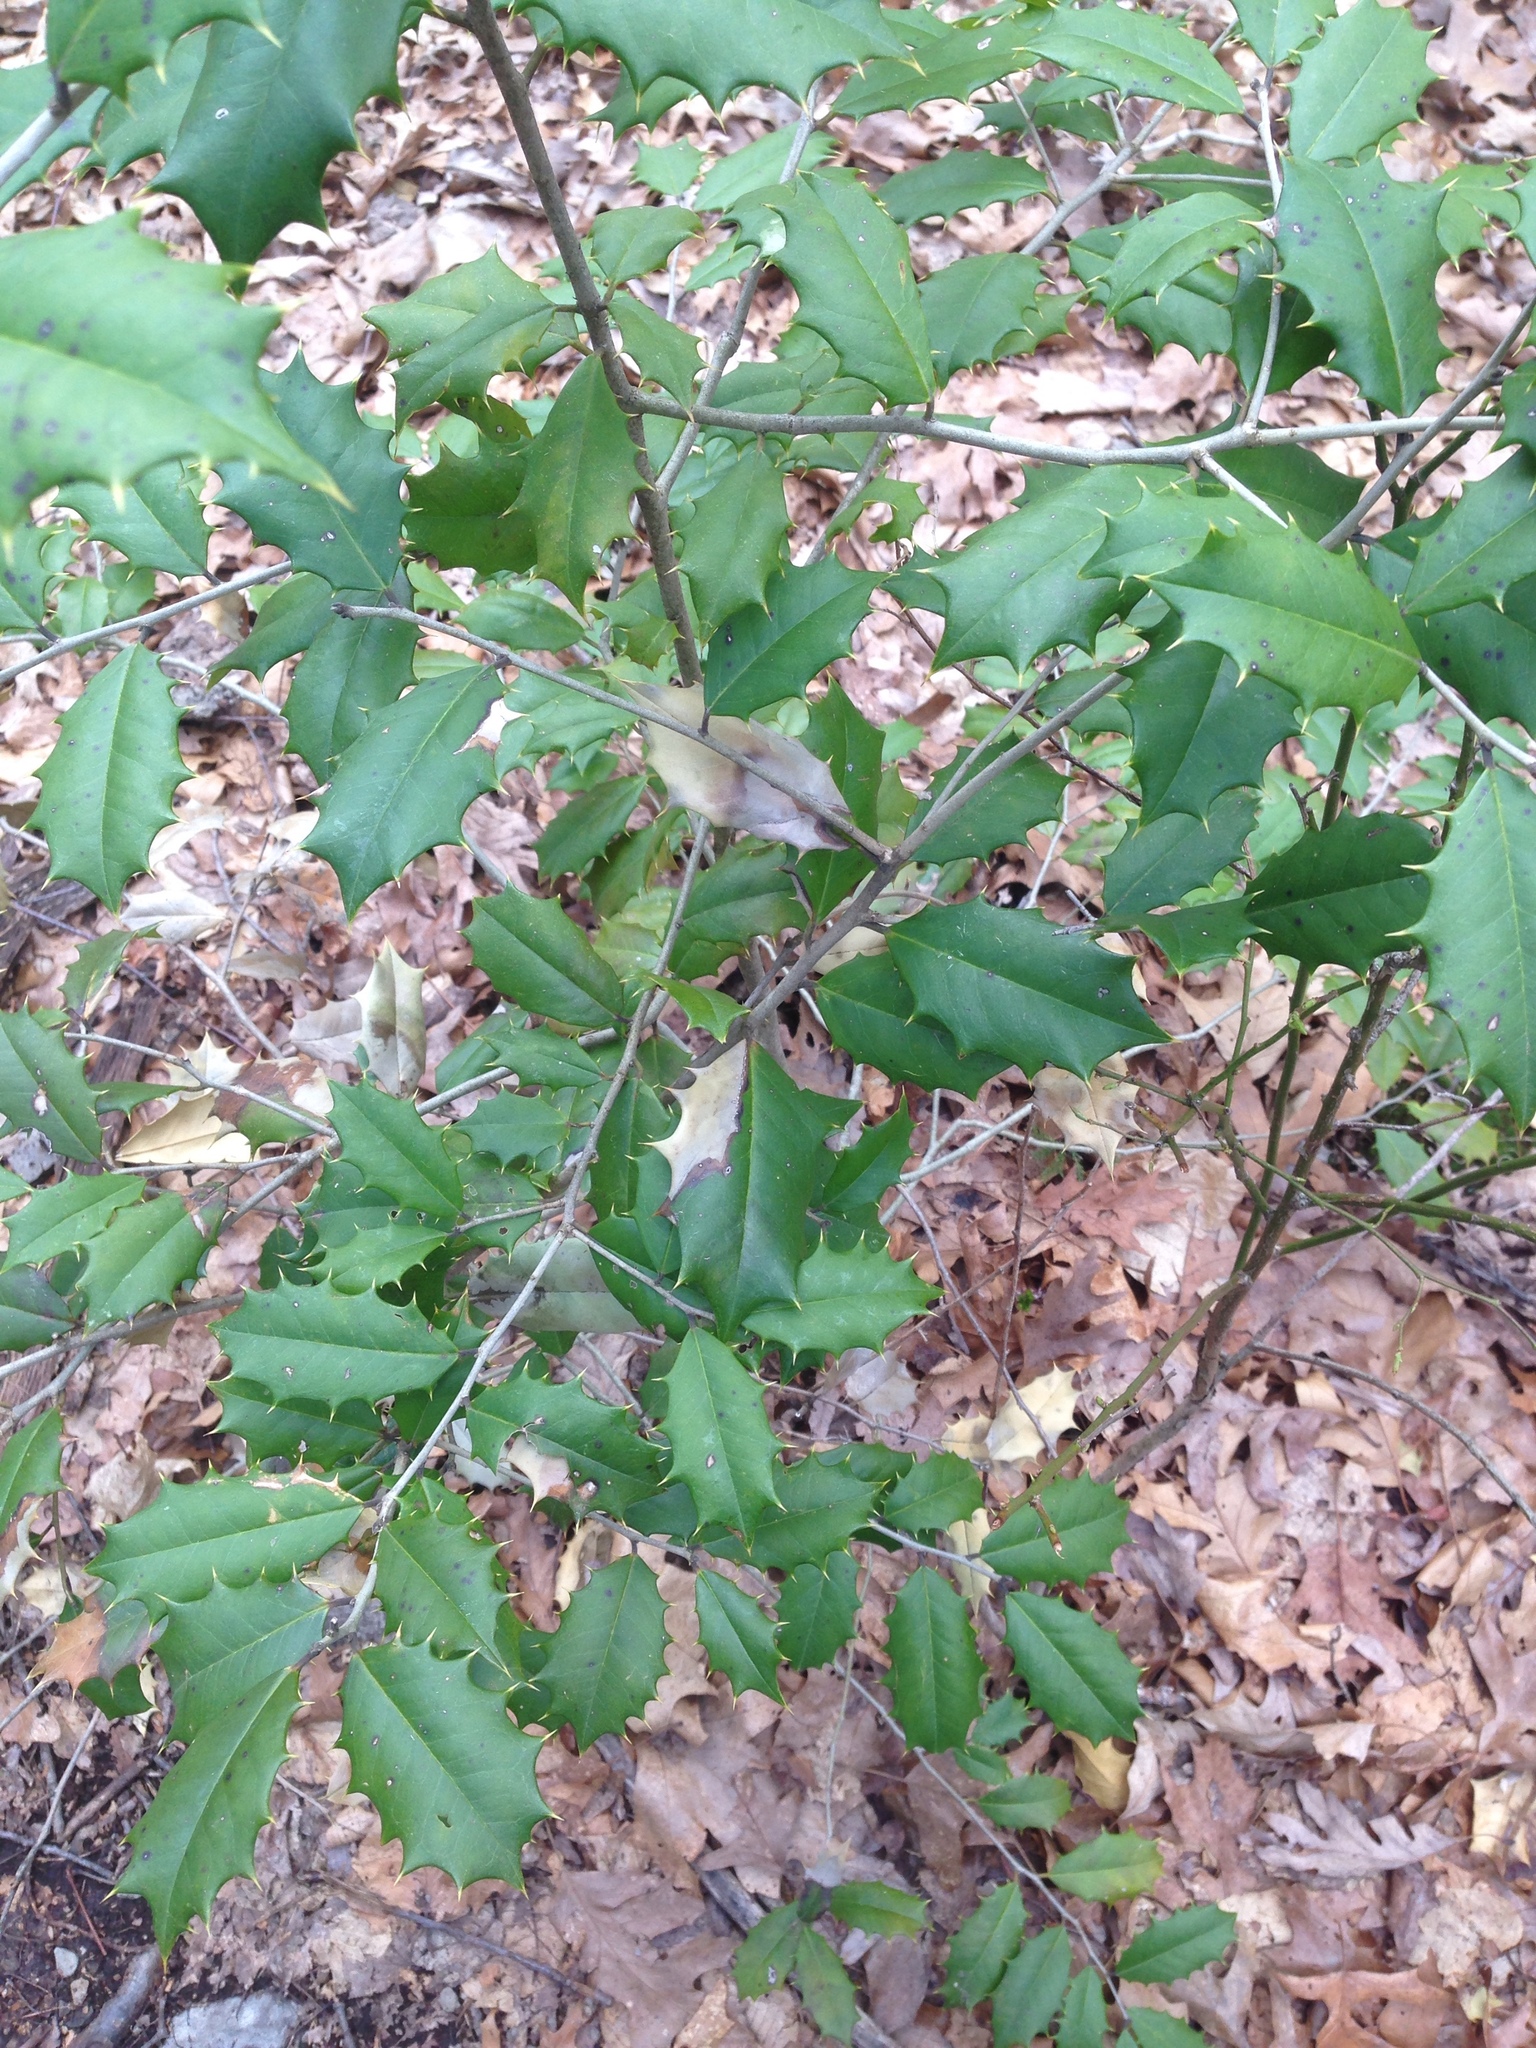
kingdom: Plantae
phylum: Tracheophyta
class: Magnoliopsida
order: Aquifoliales
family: Aquifoliaceae
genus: Ilex
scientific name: Ilex opaca
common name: American holly
